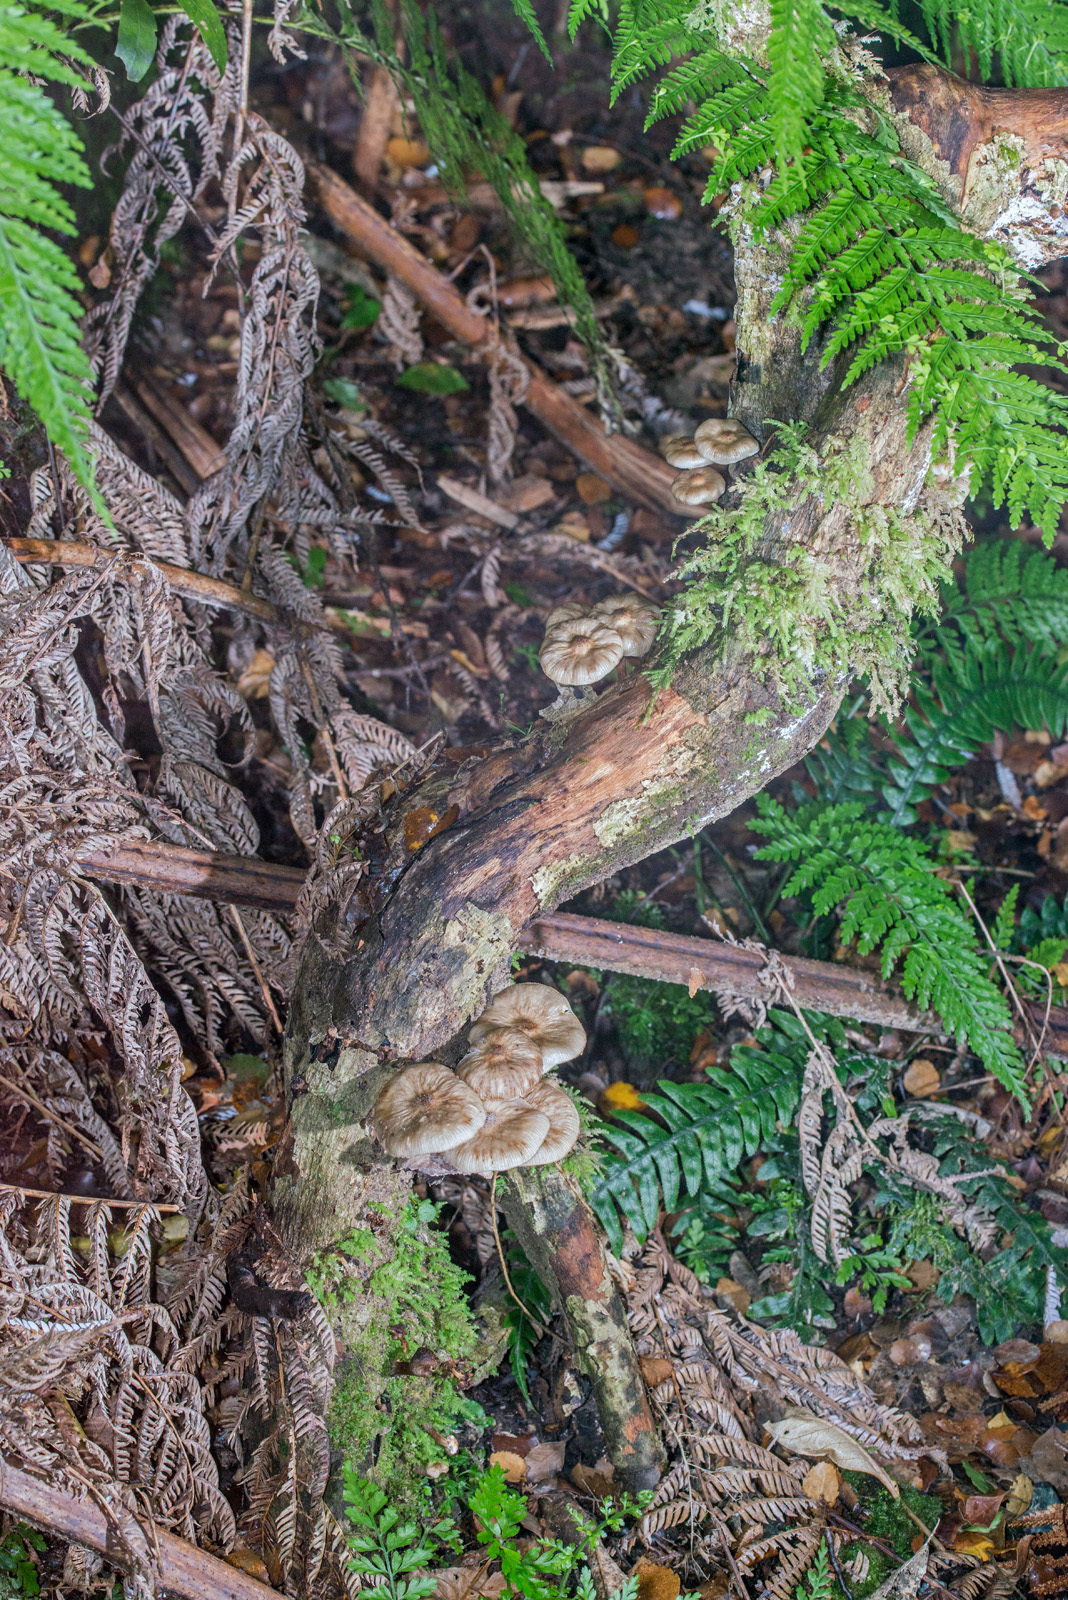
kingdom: Fungi
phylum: Basidiomycota
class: Agaricomycetes
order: Agaricales
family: Physalacriaceae
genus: Armillaria
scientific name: Armillaria novae-zelandiae
